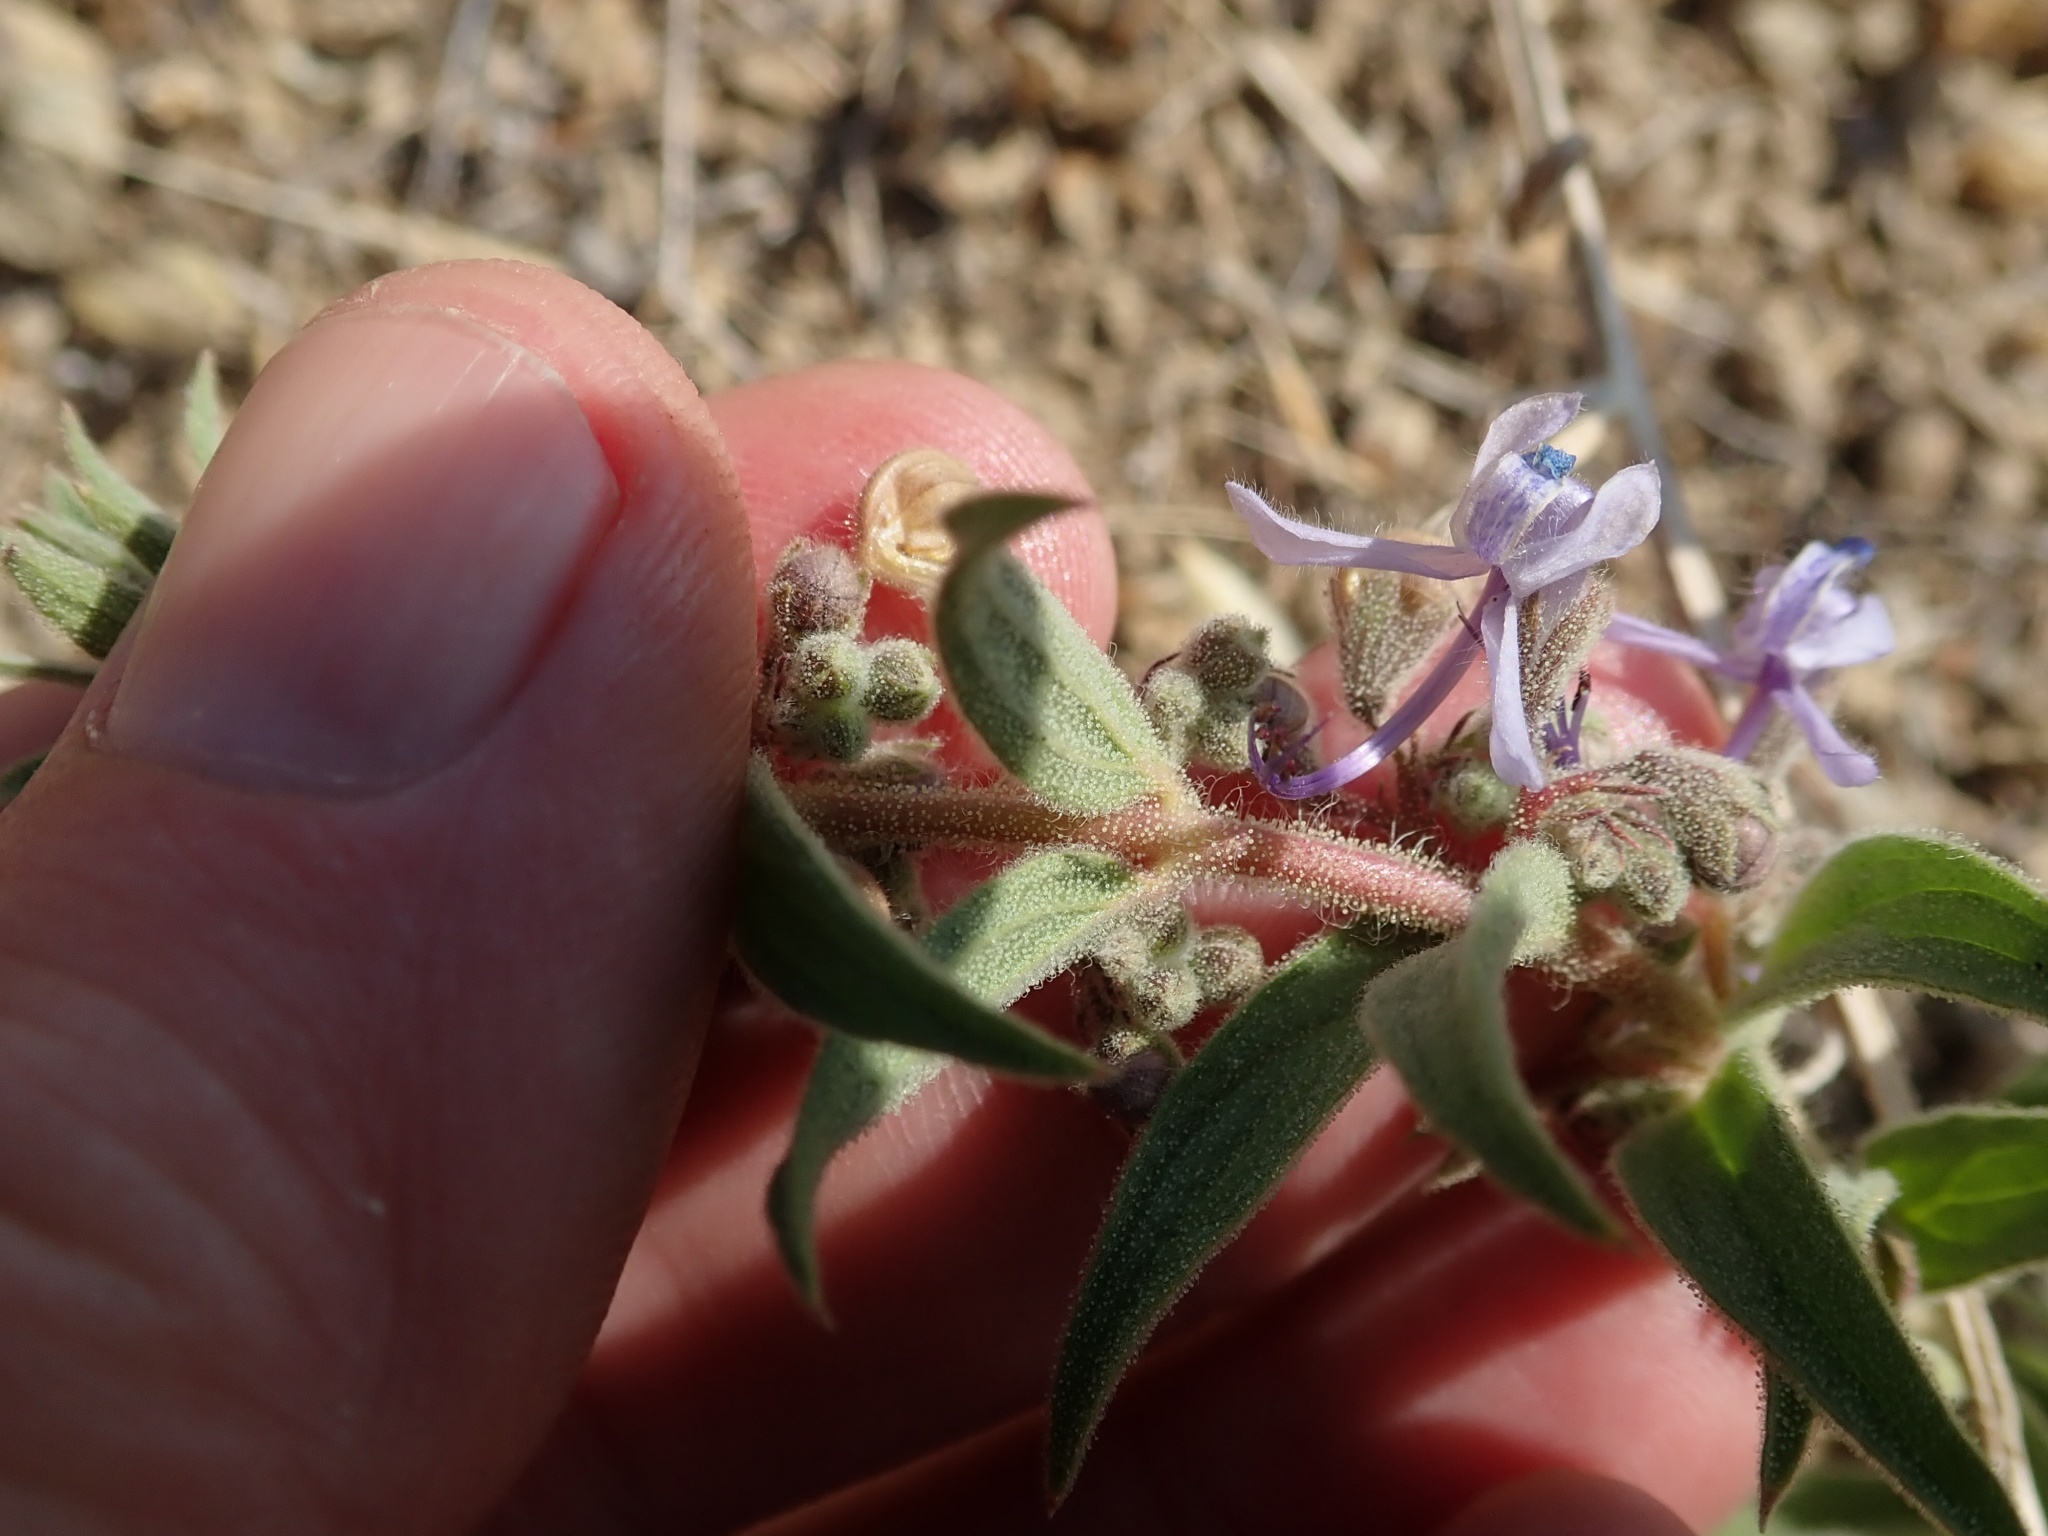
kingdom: Plantae
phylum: Tracheophyta
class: Magnoliopsida
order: Lamiales
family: Lamiaceae
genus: Trichostema
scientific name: Trichostema lanceolatum
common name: Vinegar-weed
